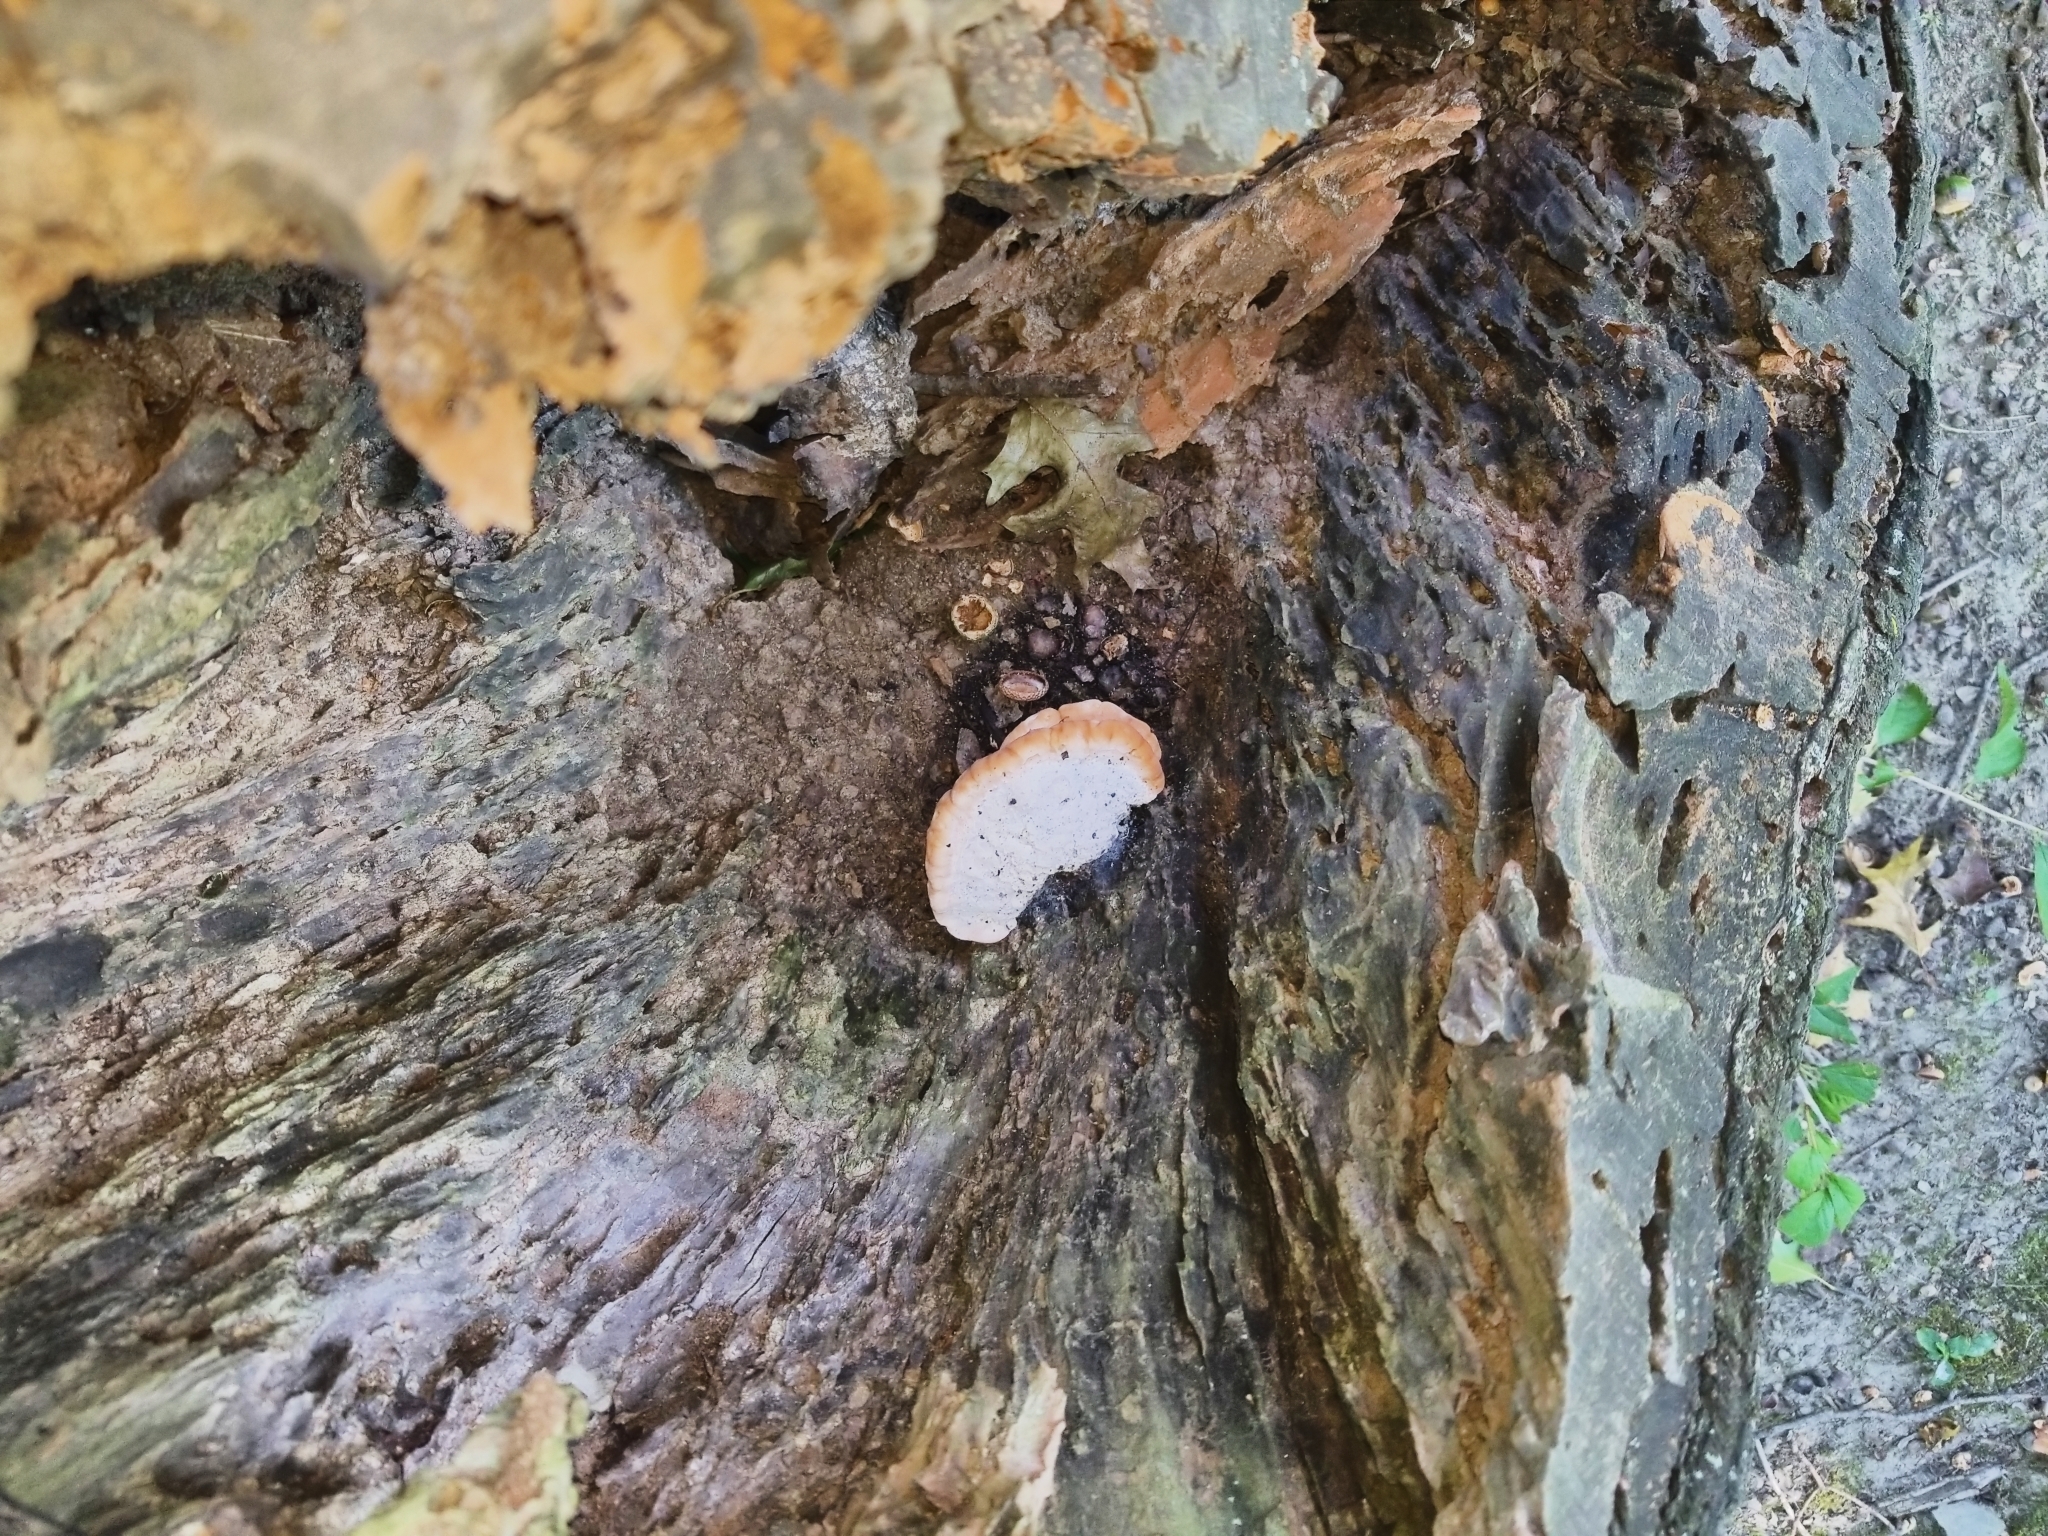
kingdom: Fungi
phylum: Basidiomycota
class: Agaricomycetes
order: Polyporales
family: Fomitopsidaceae
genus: Niveoporofomes
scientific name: Niveoporofomes spraguei
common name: Green cheese polypore
